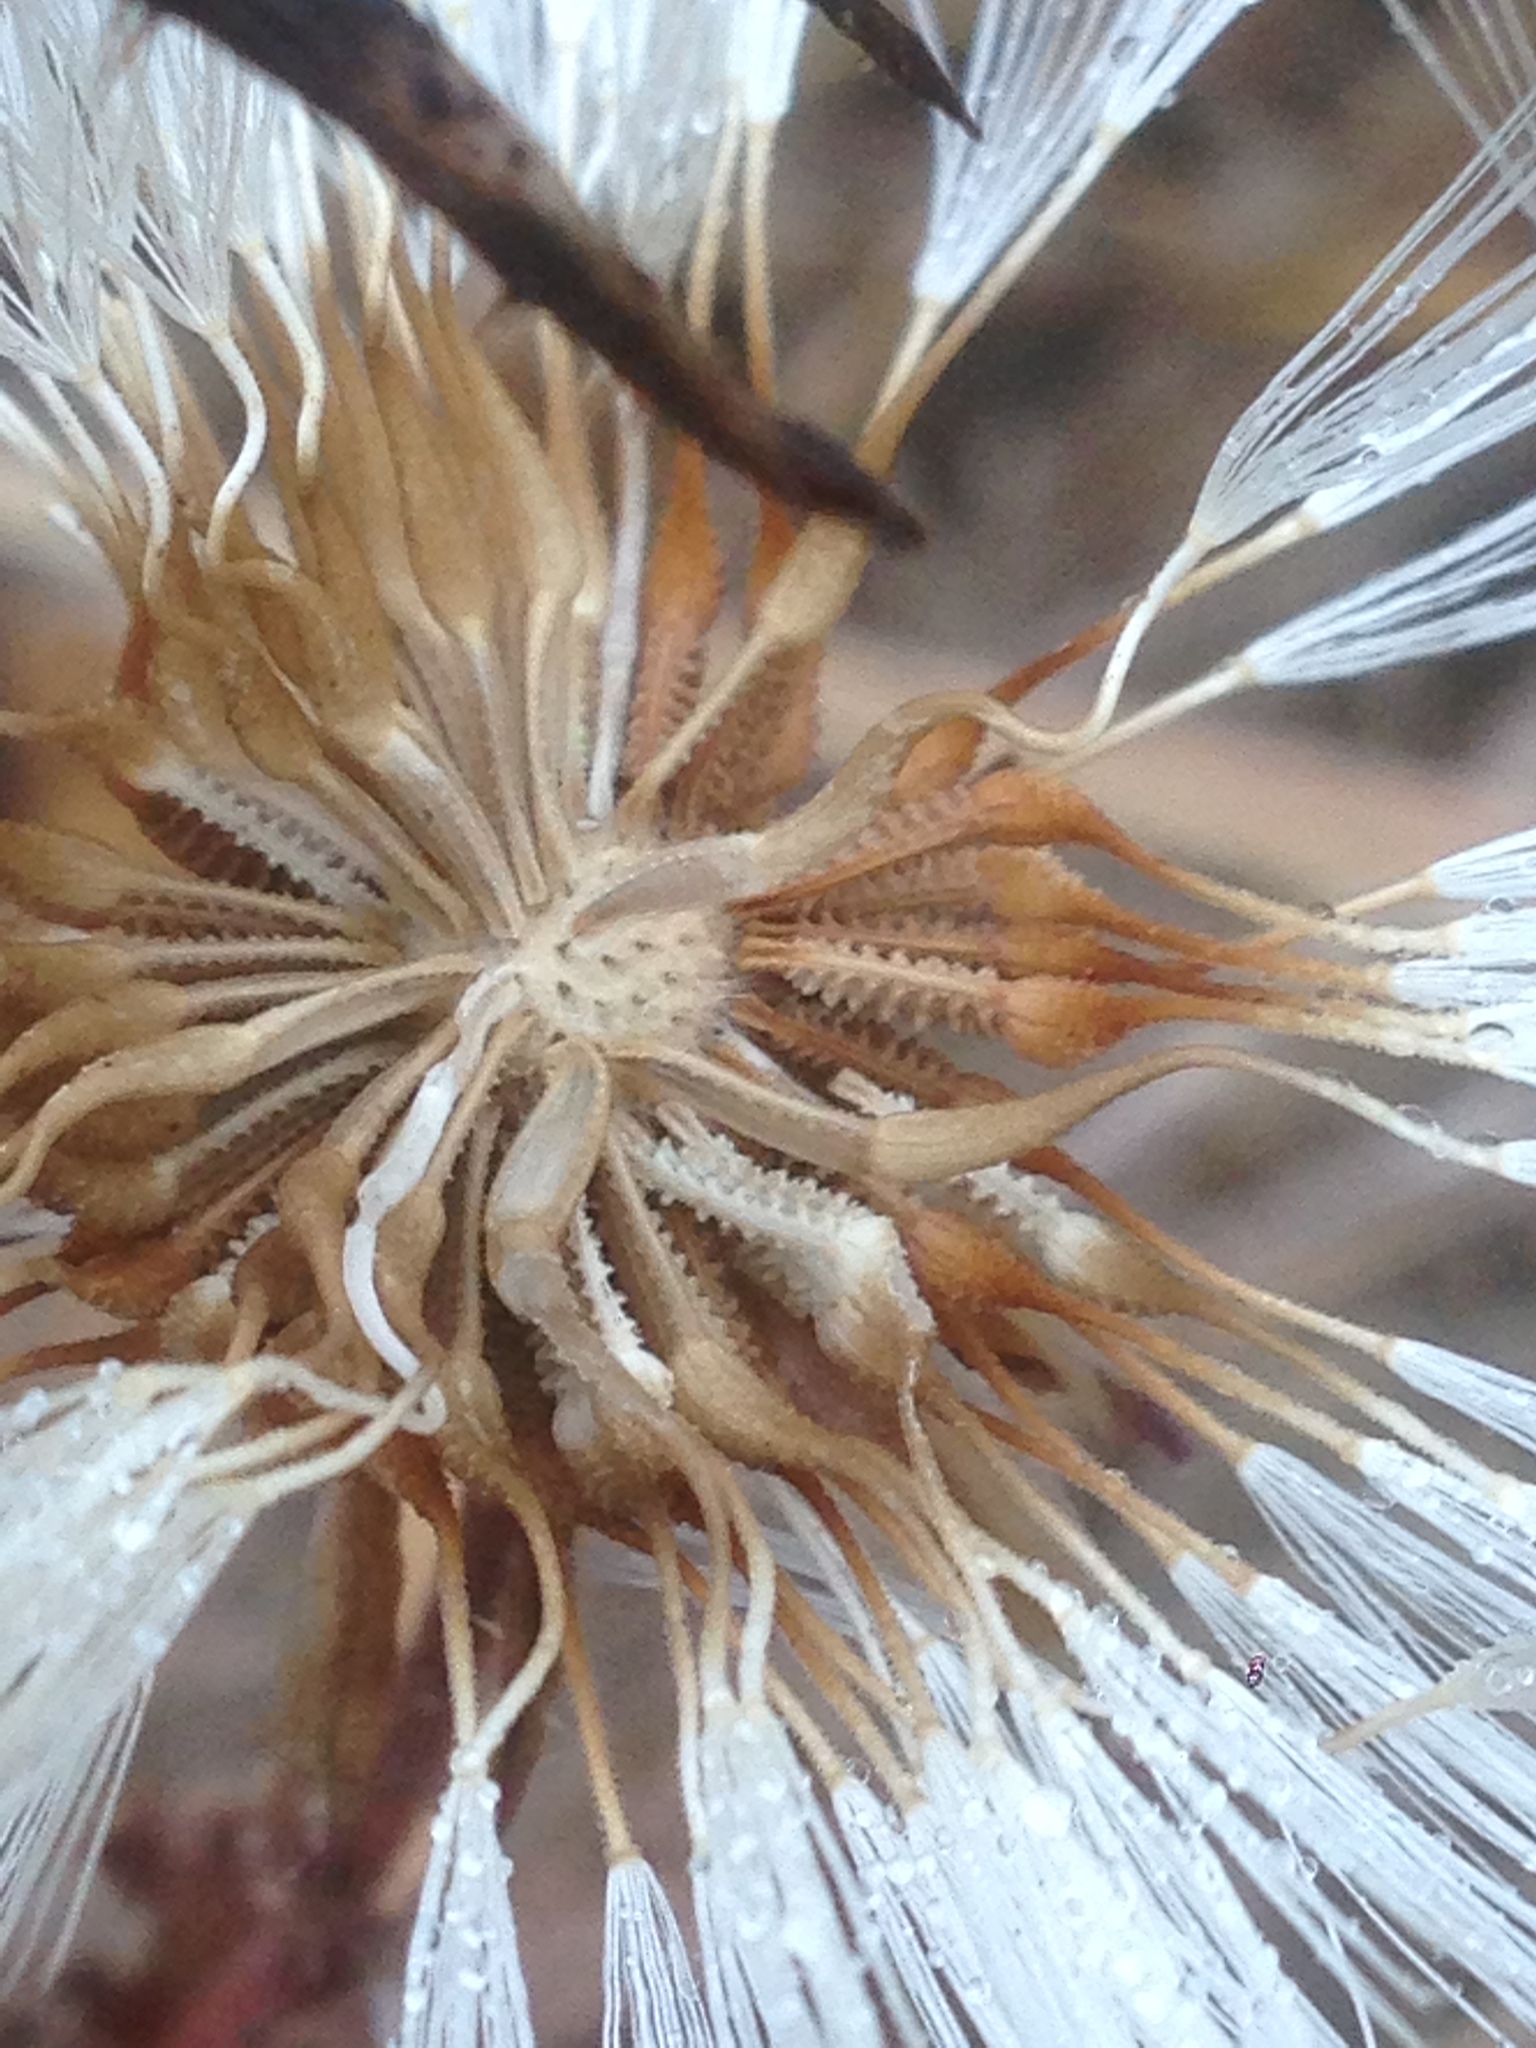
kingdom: Plantae
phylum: Tracheophyta
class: Magnoliopsida
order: Asterales
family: Asteraceae
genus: Urospermum
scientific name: Urospermum picroides
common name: False hawkbit
